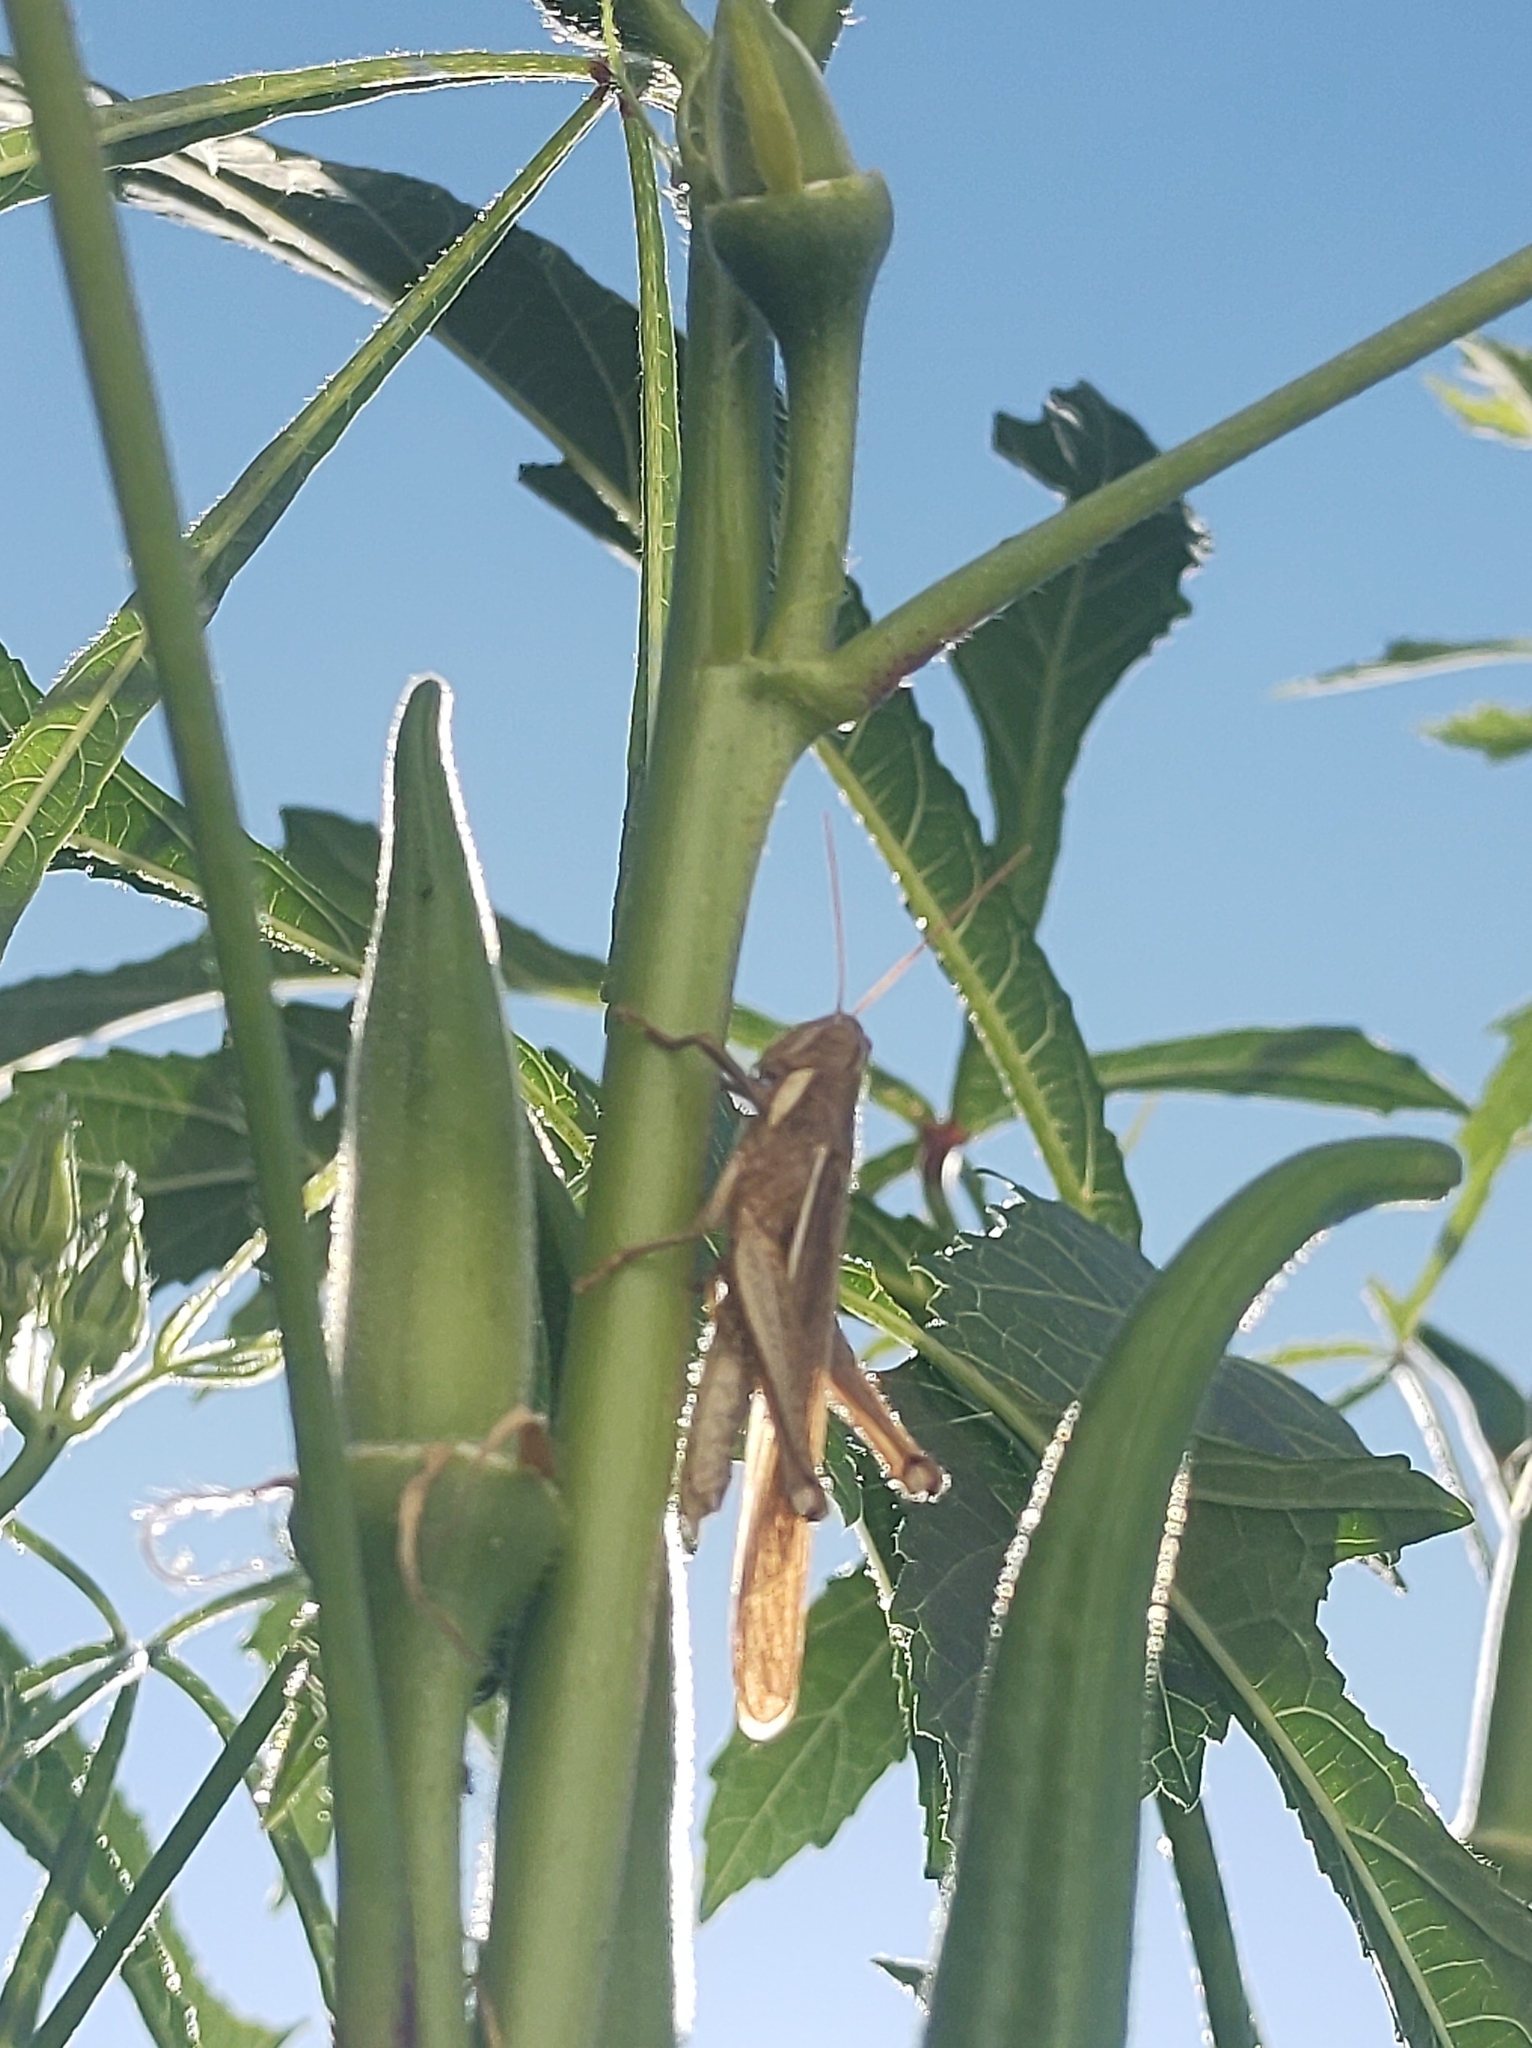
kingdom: Animalia
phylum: Arthropoda
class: Insecta
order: Orthoptera
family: Acrididae
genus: Schistocerca
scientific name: Schistocerca flavofasciata
